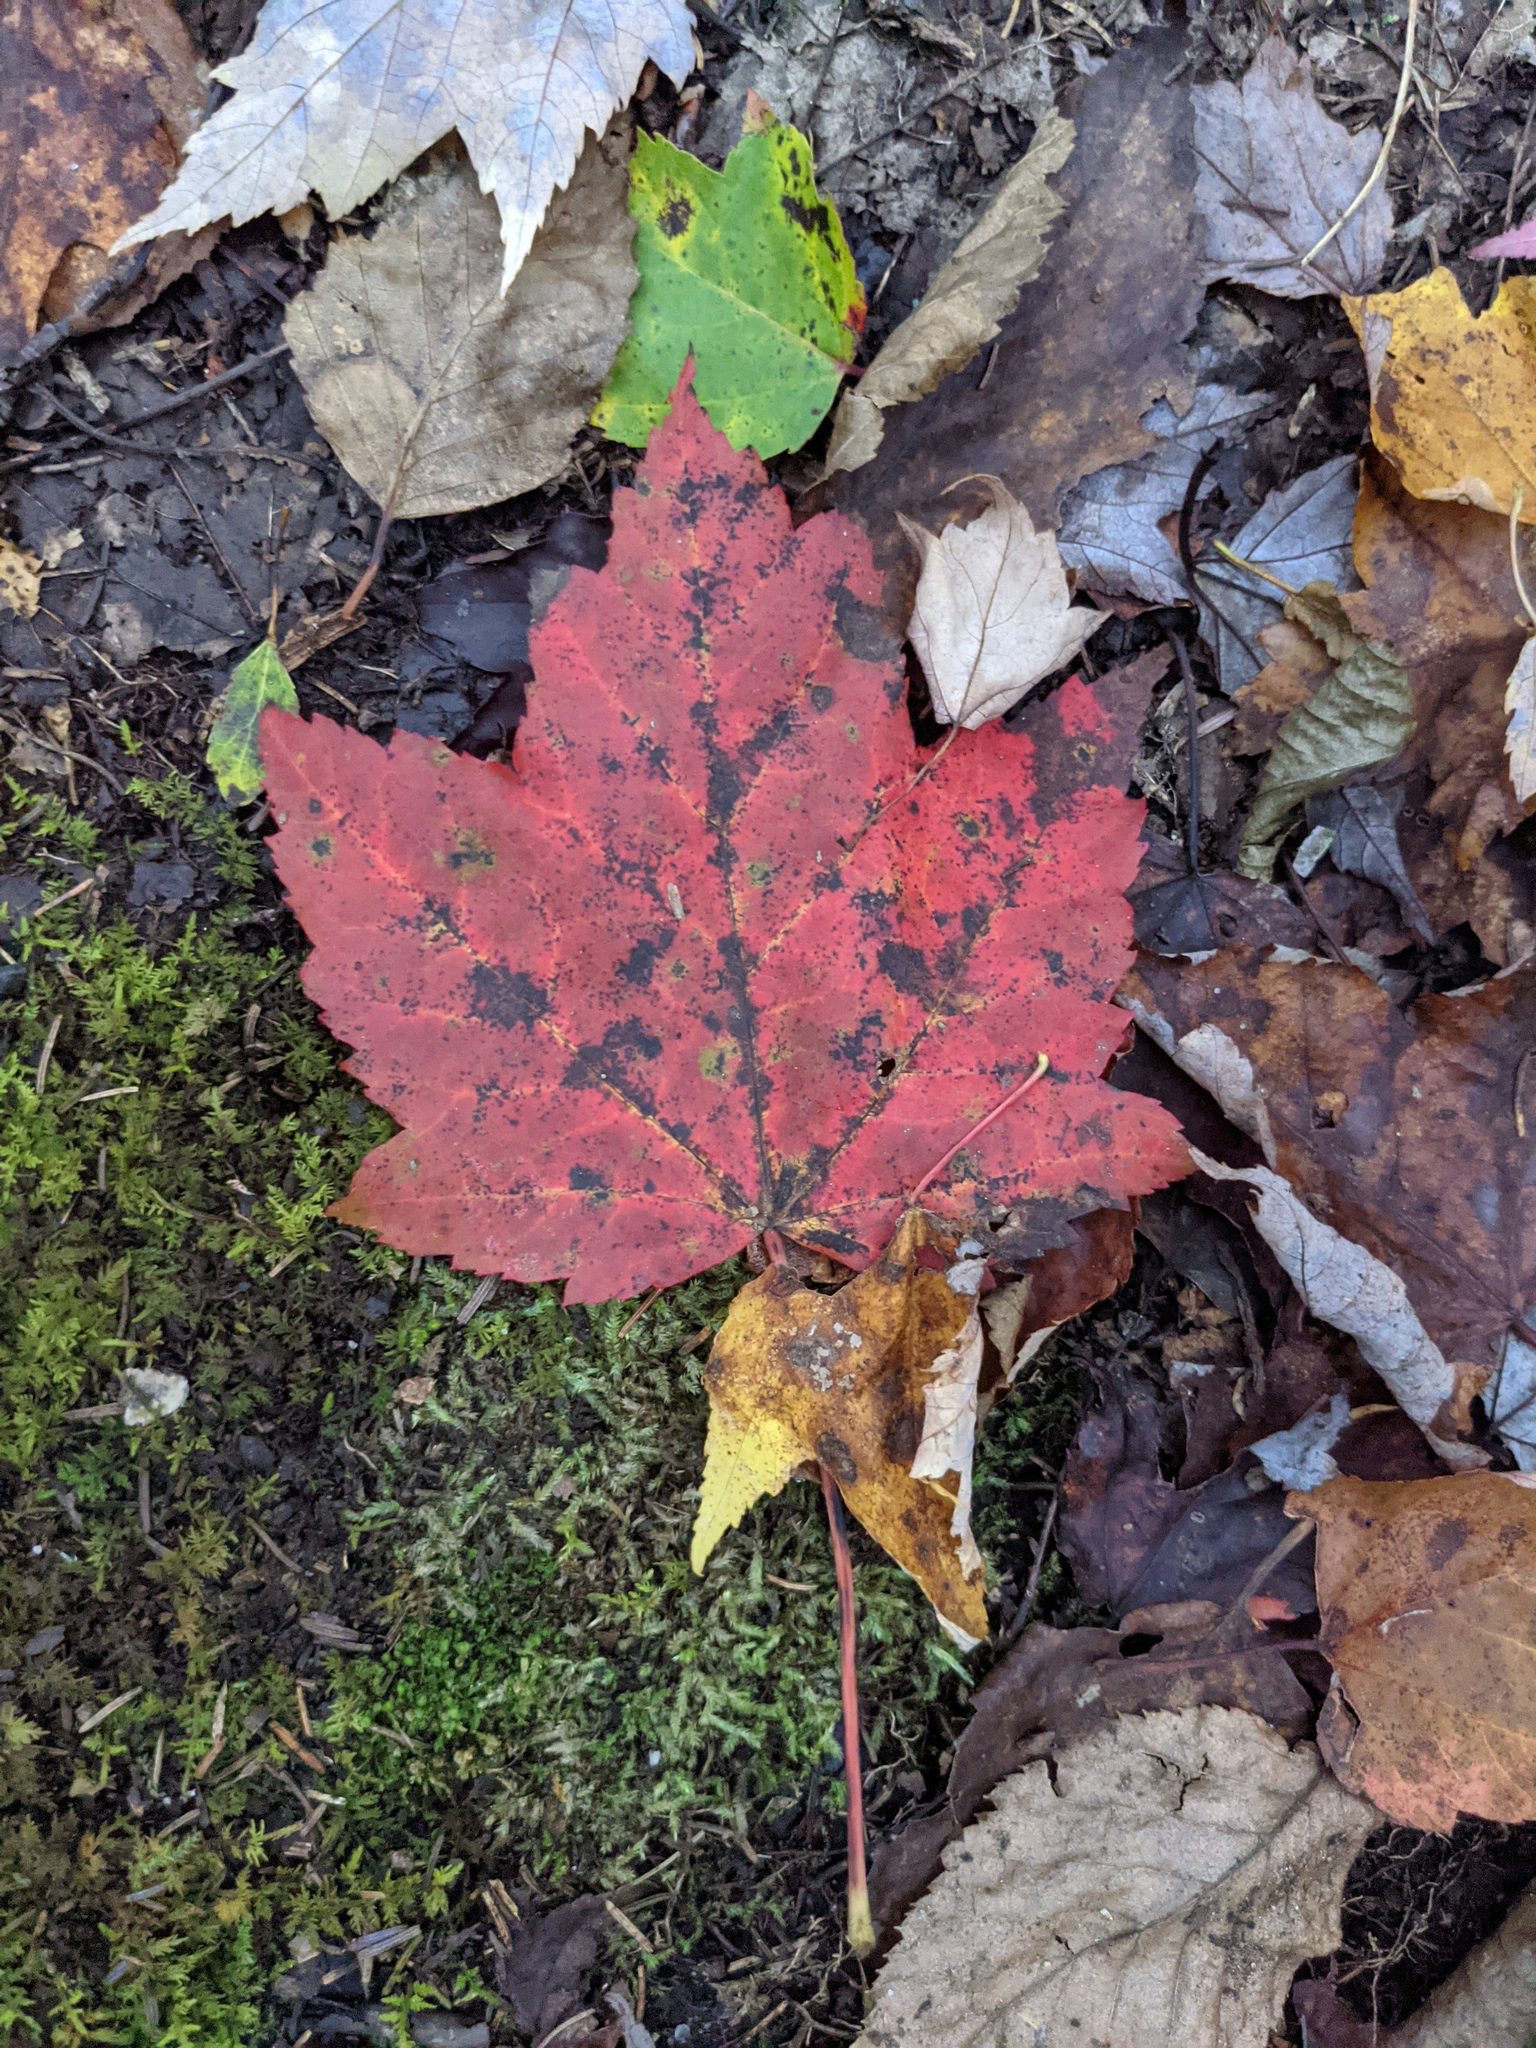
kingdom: Plantae
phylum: Tracheophyta
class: Magnoliopsida
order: Sapindales
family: Sapindaceae
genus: Acer
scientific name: Acer rubrum
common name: Red maple
